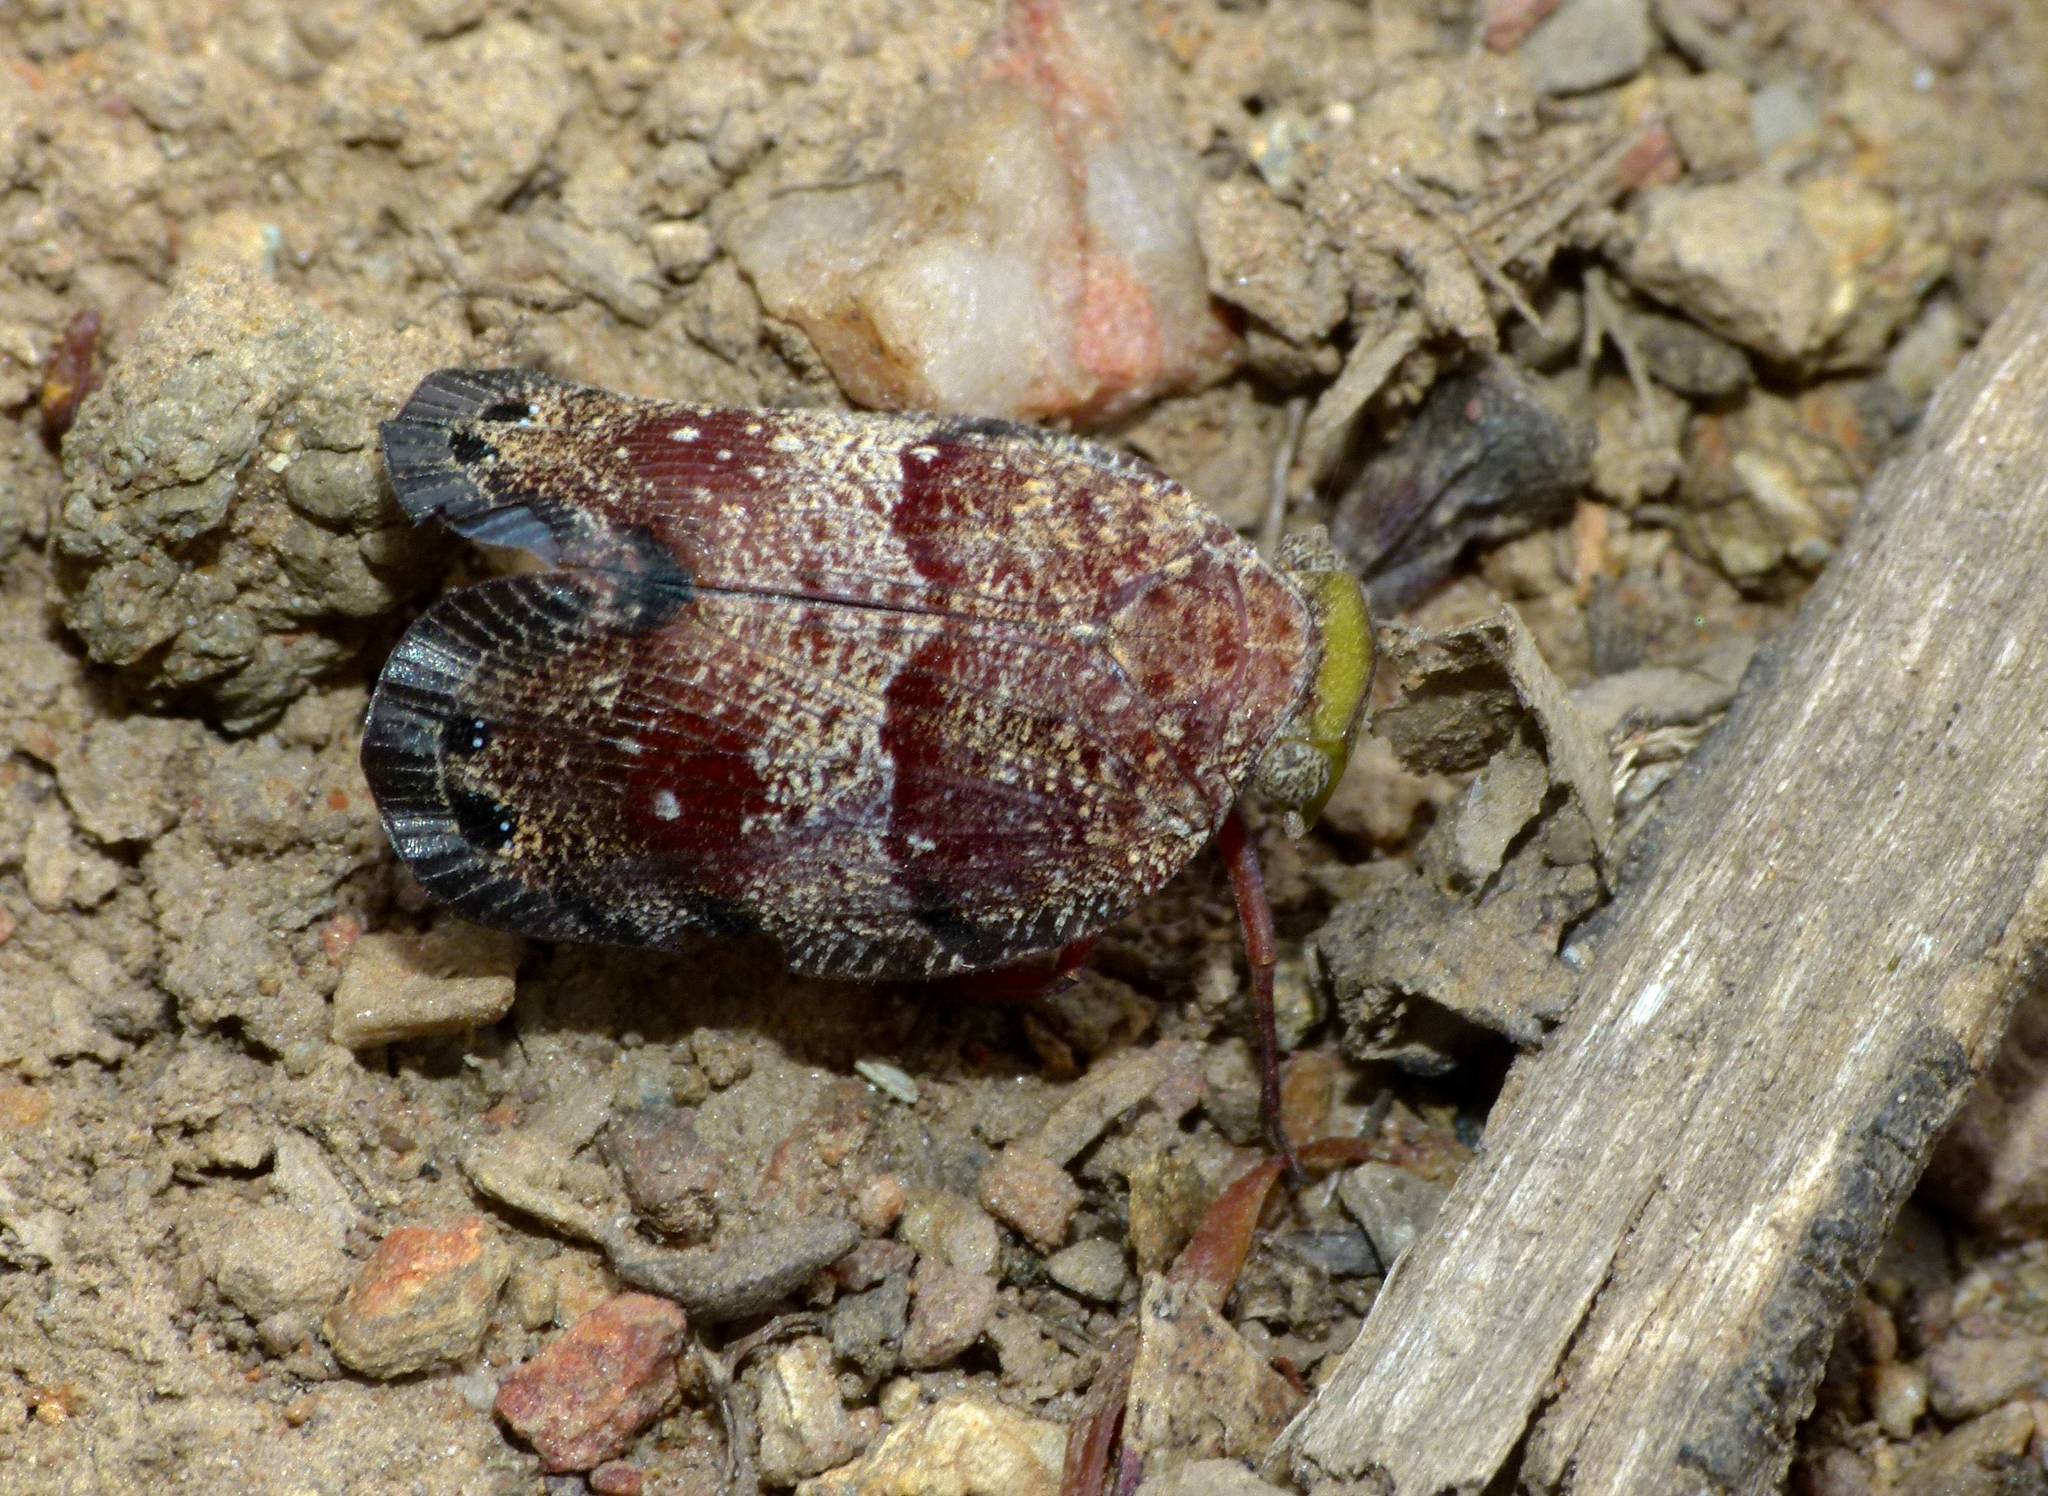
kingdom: Animalia
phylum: Arthropoda
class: Insecta
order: Hemiptera
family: Eurybrachidae
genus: Platybrachys
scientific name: Platybrachys decemmacula
